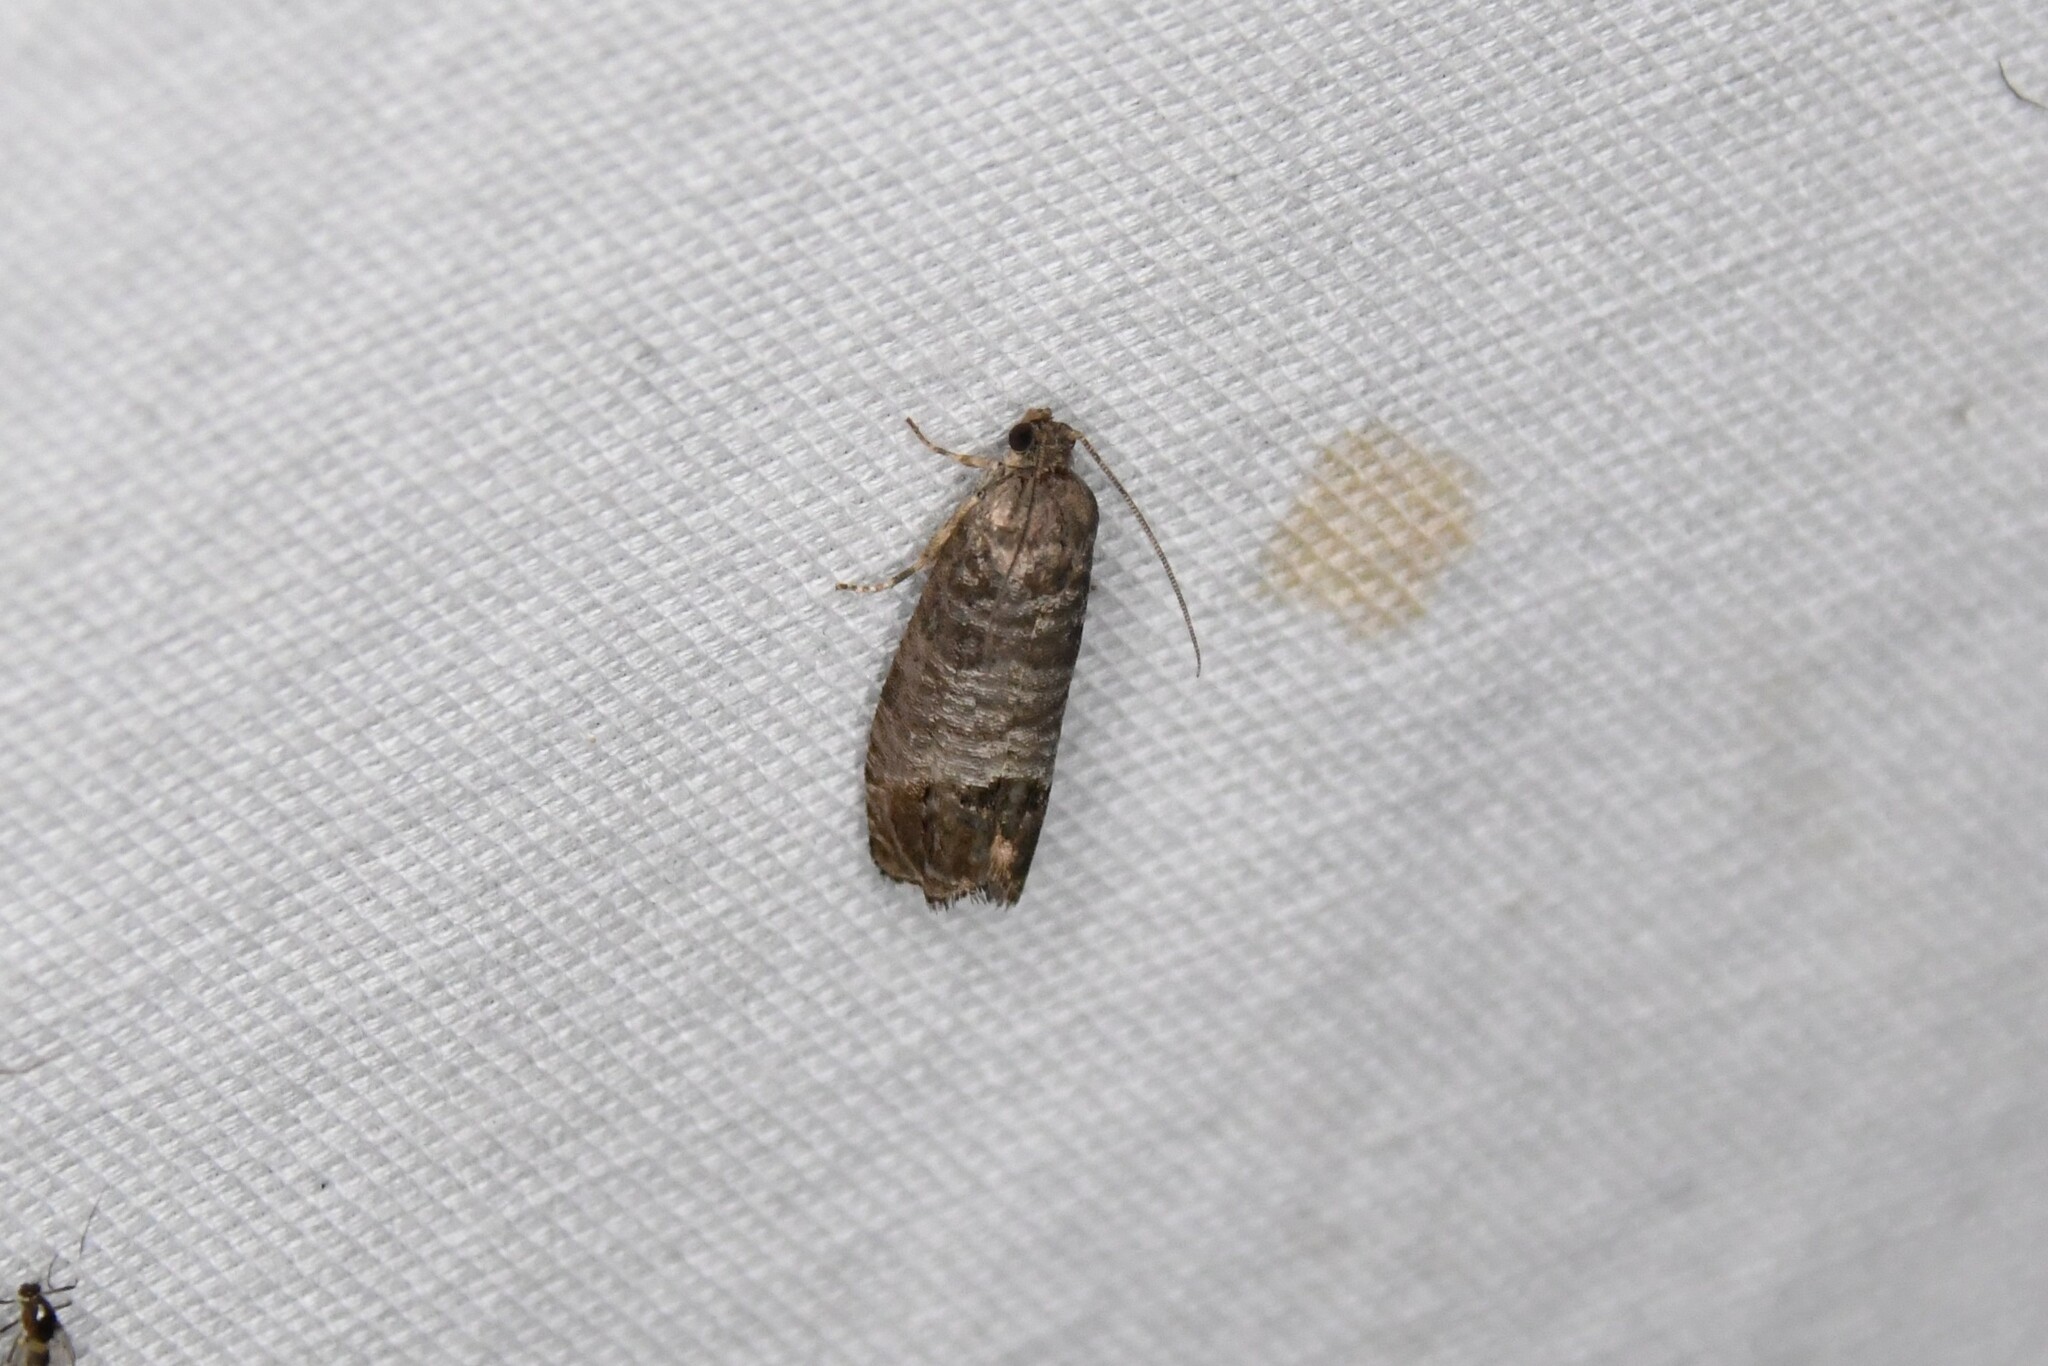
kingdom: Animalia
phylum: Arthropoda
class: Insecta
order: Lepidoptera
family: Tortricidae
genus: Cydia
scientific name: Cydia pomonella
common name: Codling moth
